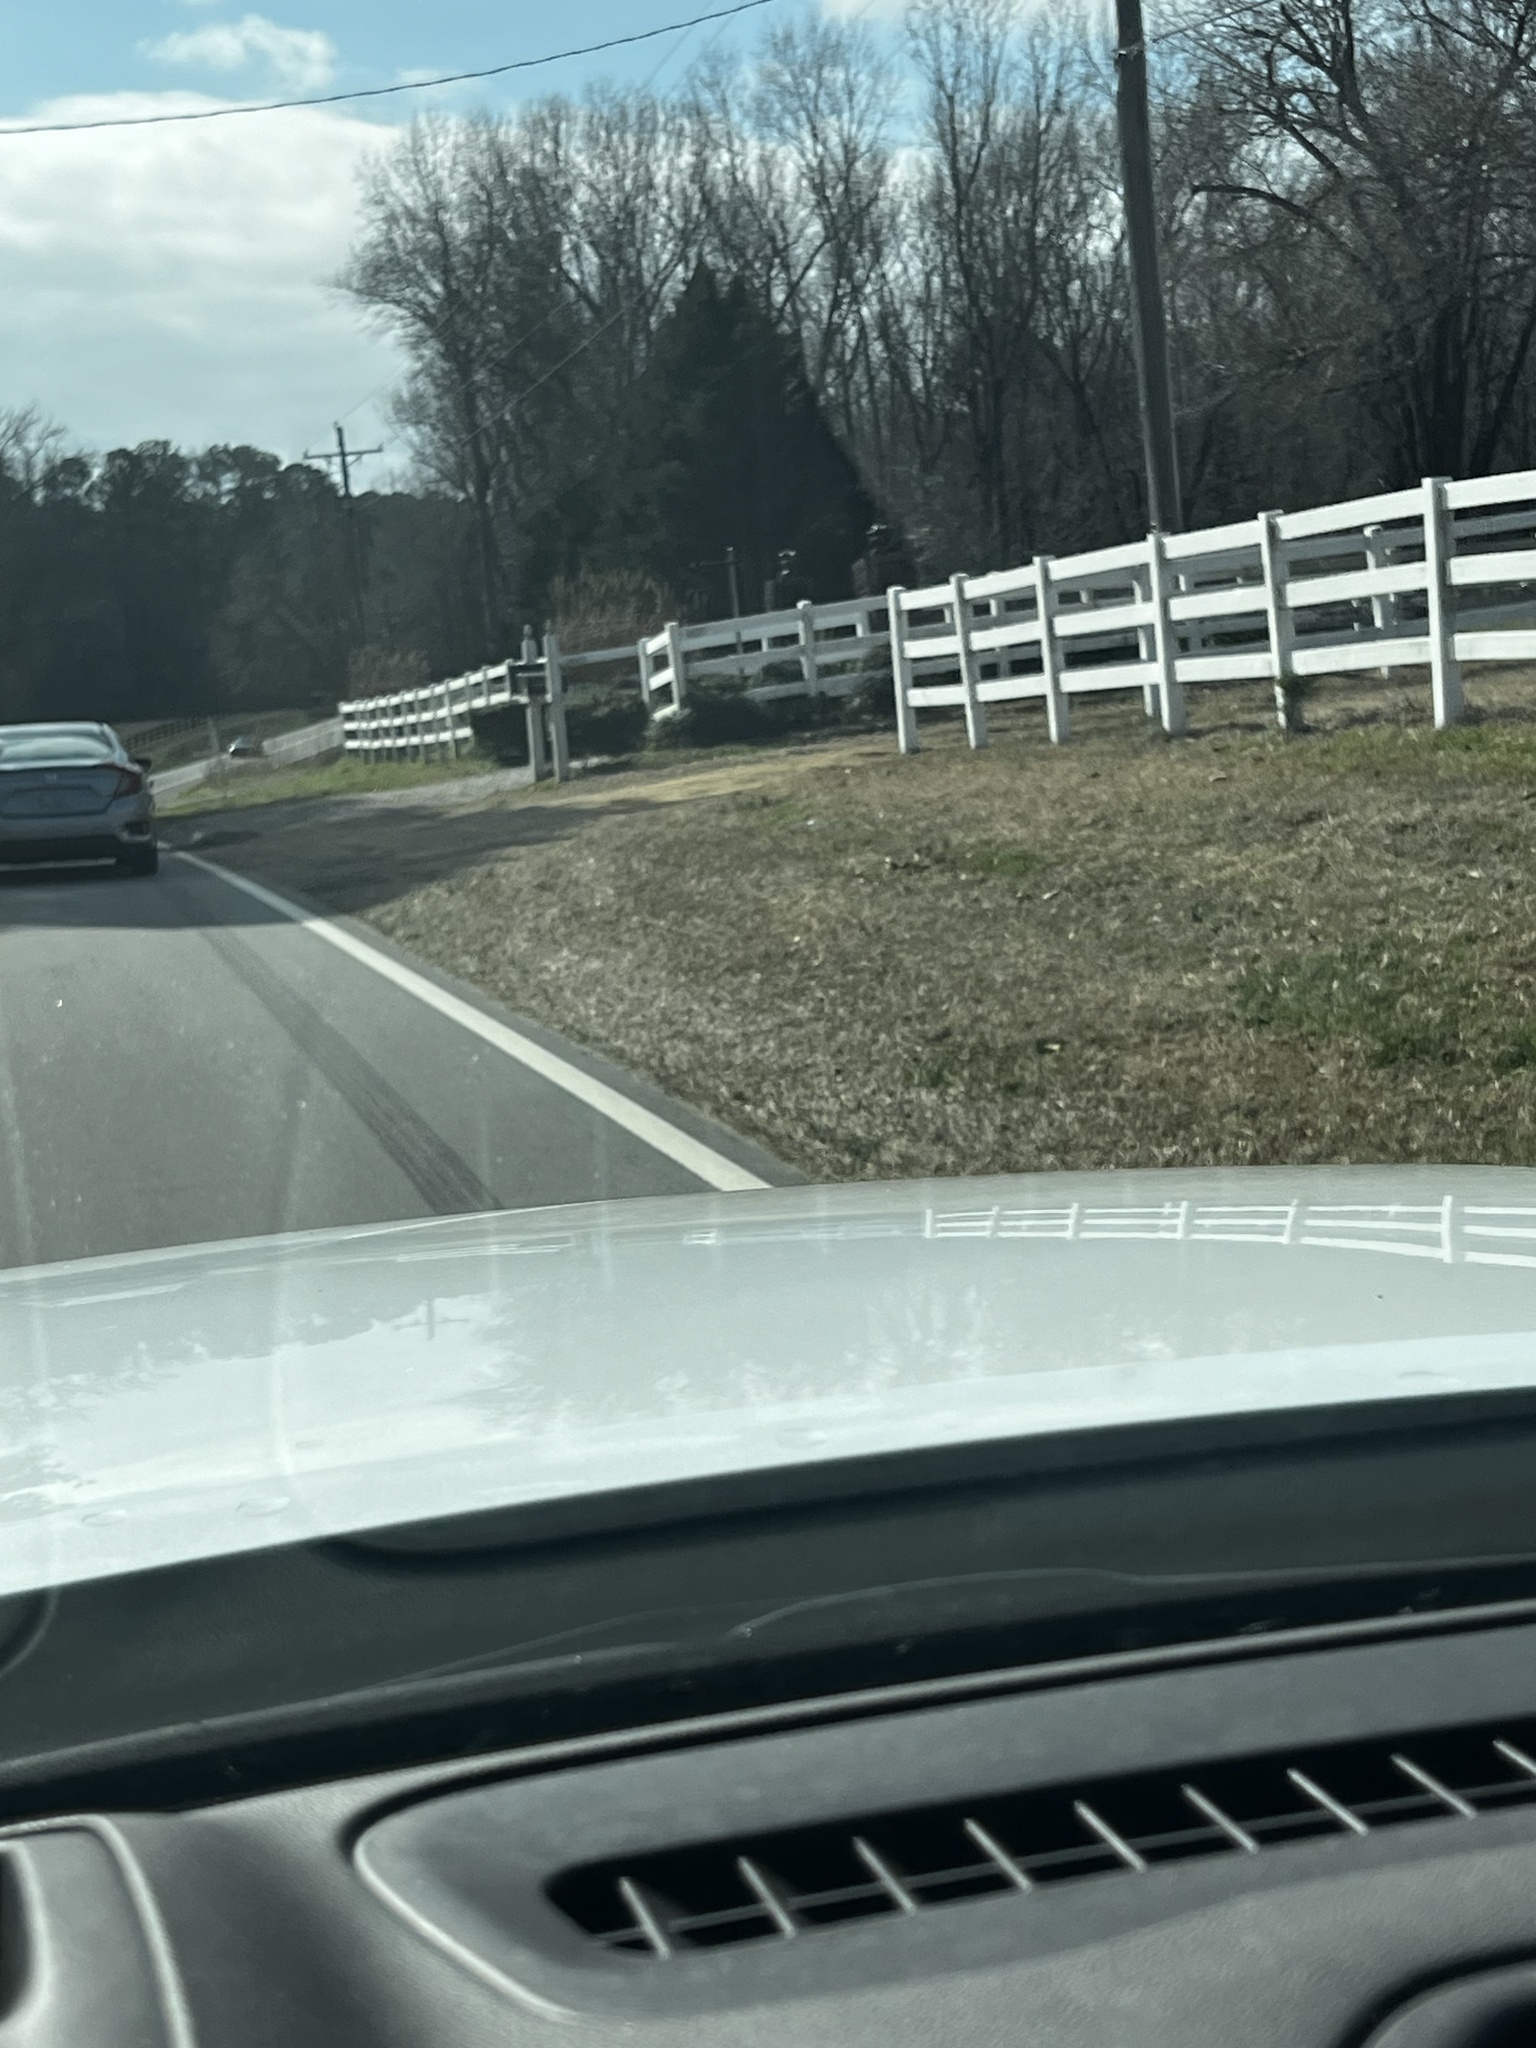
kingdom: Animalia
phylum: Chordata
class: Mammalia
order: Artiodactyla
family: Cervidae
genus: Odocoileus
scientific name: Odocoileus virginianus
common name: White-tailed deer
